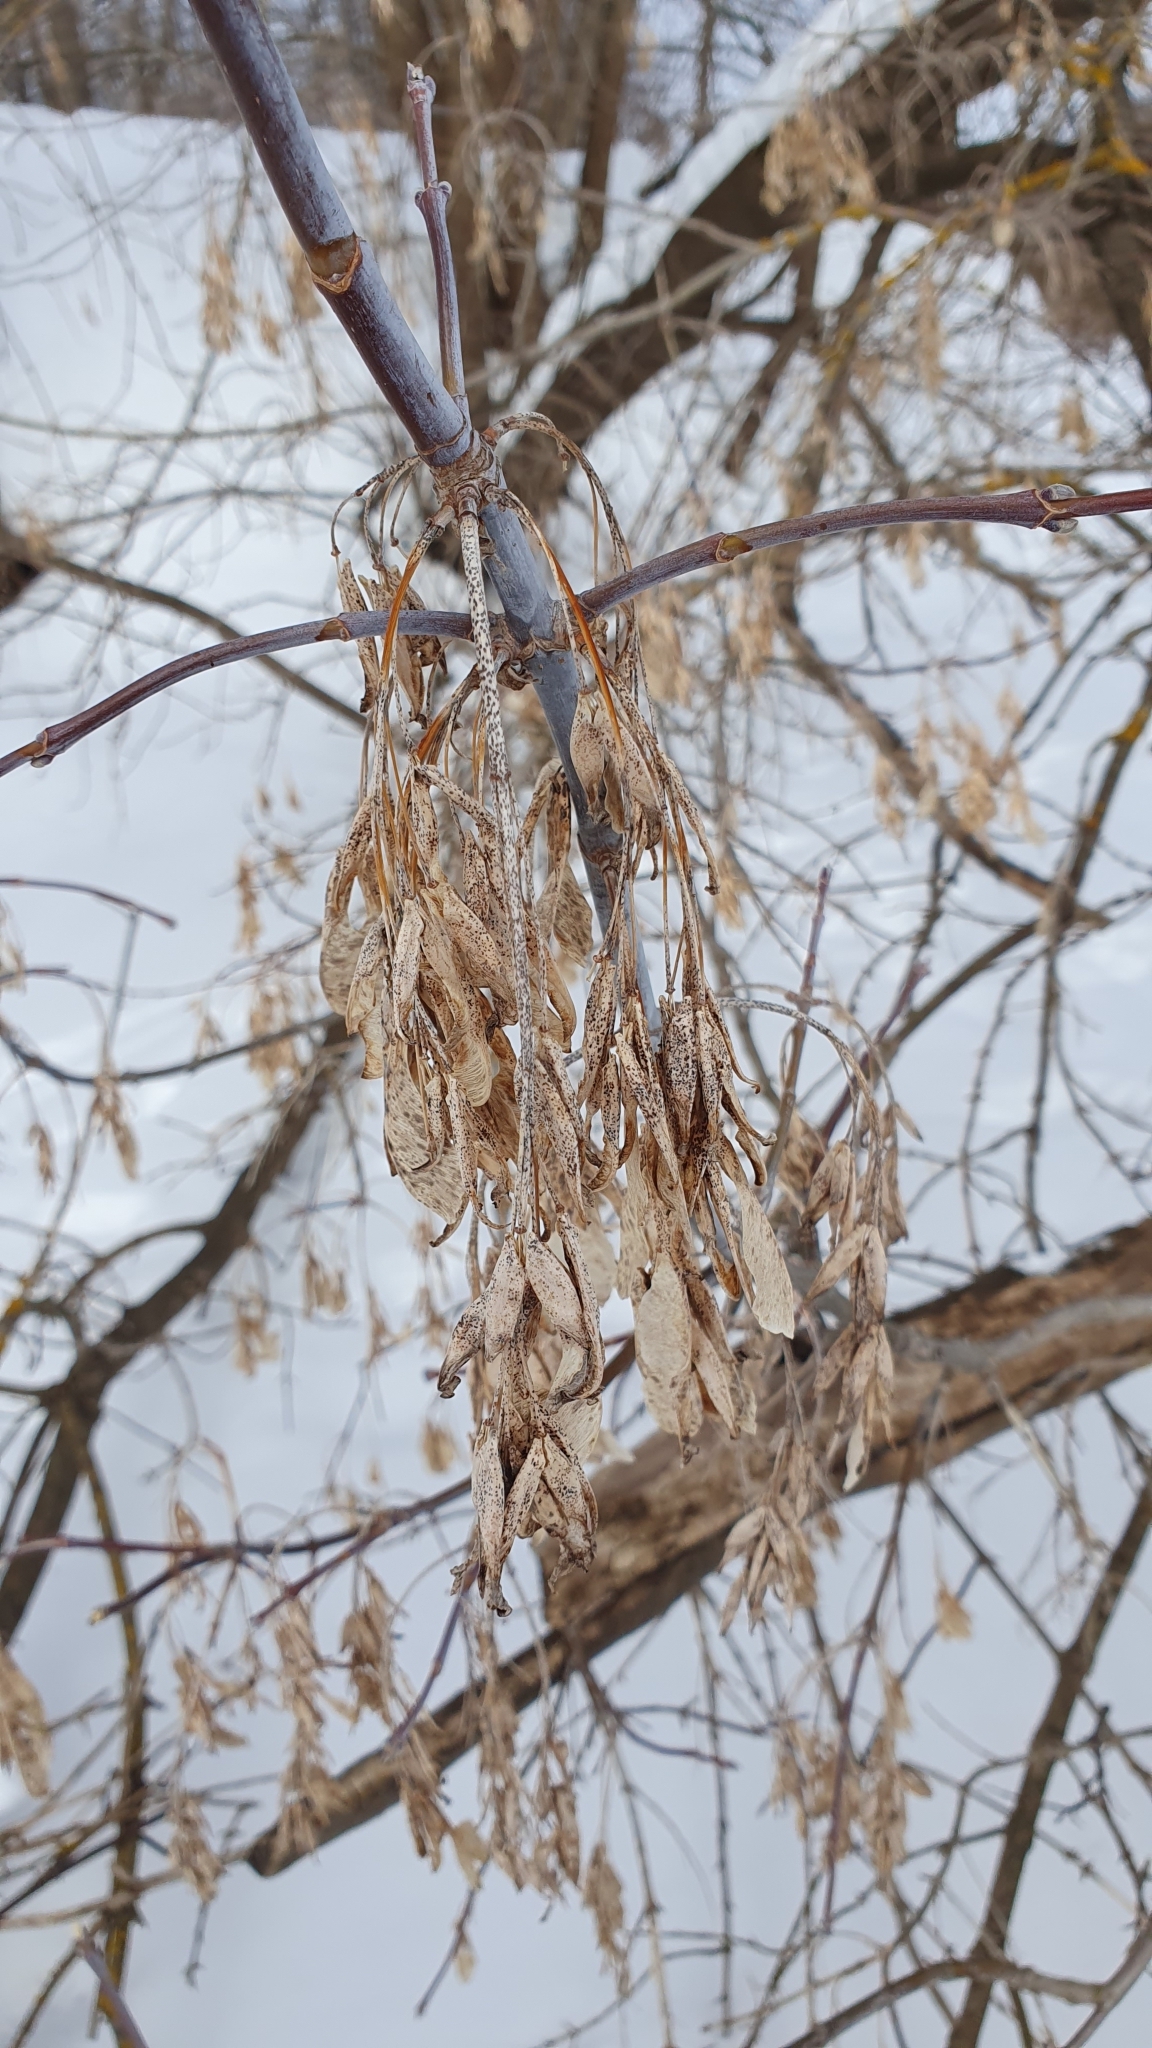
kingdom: Plantae
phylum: Tracheophyta
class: Magnoliopsida
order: Sapindales
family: Sapindaceae
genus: Acer
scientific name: Acer negundo
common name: Ashleaf maple
